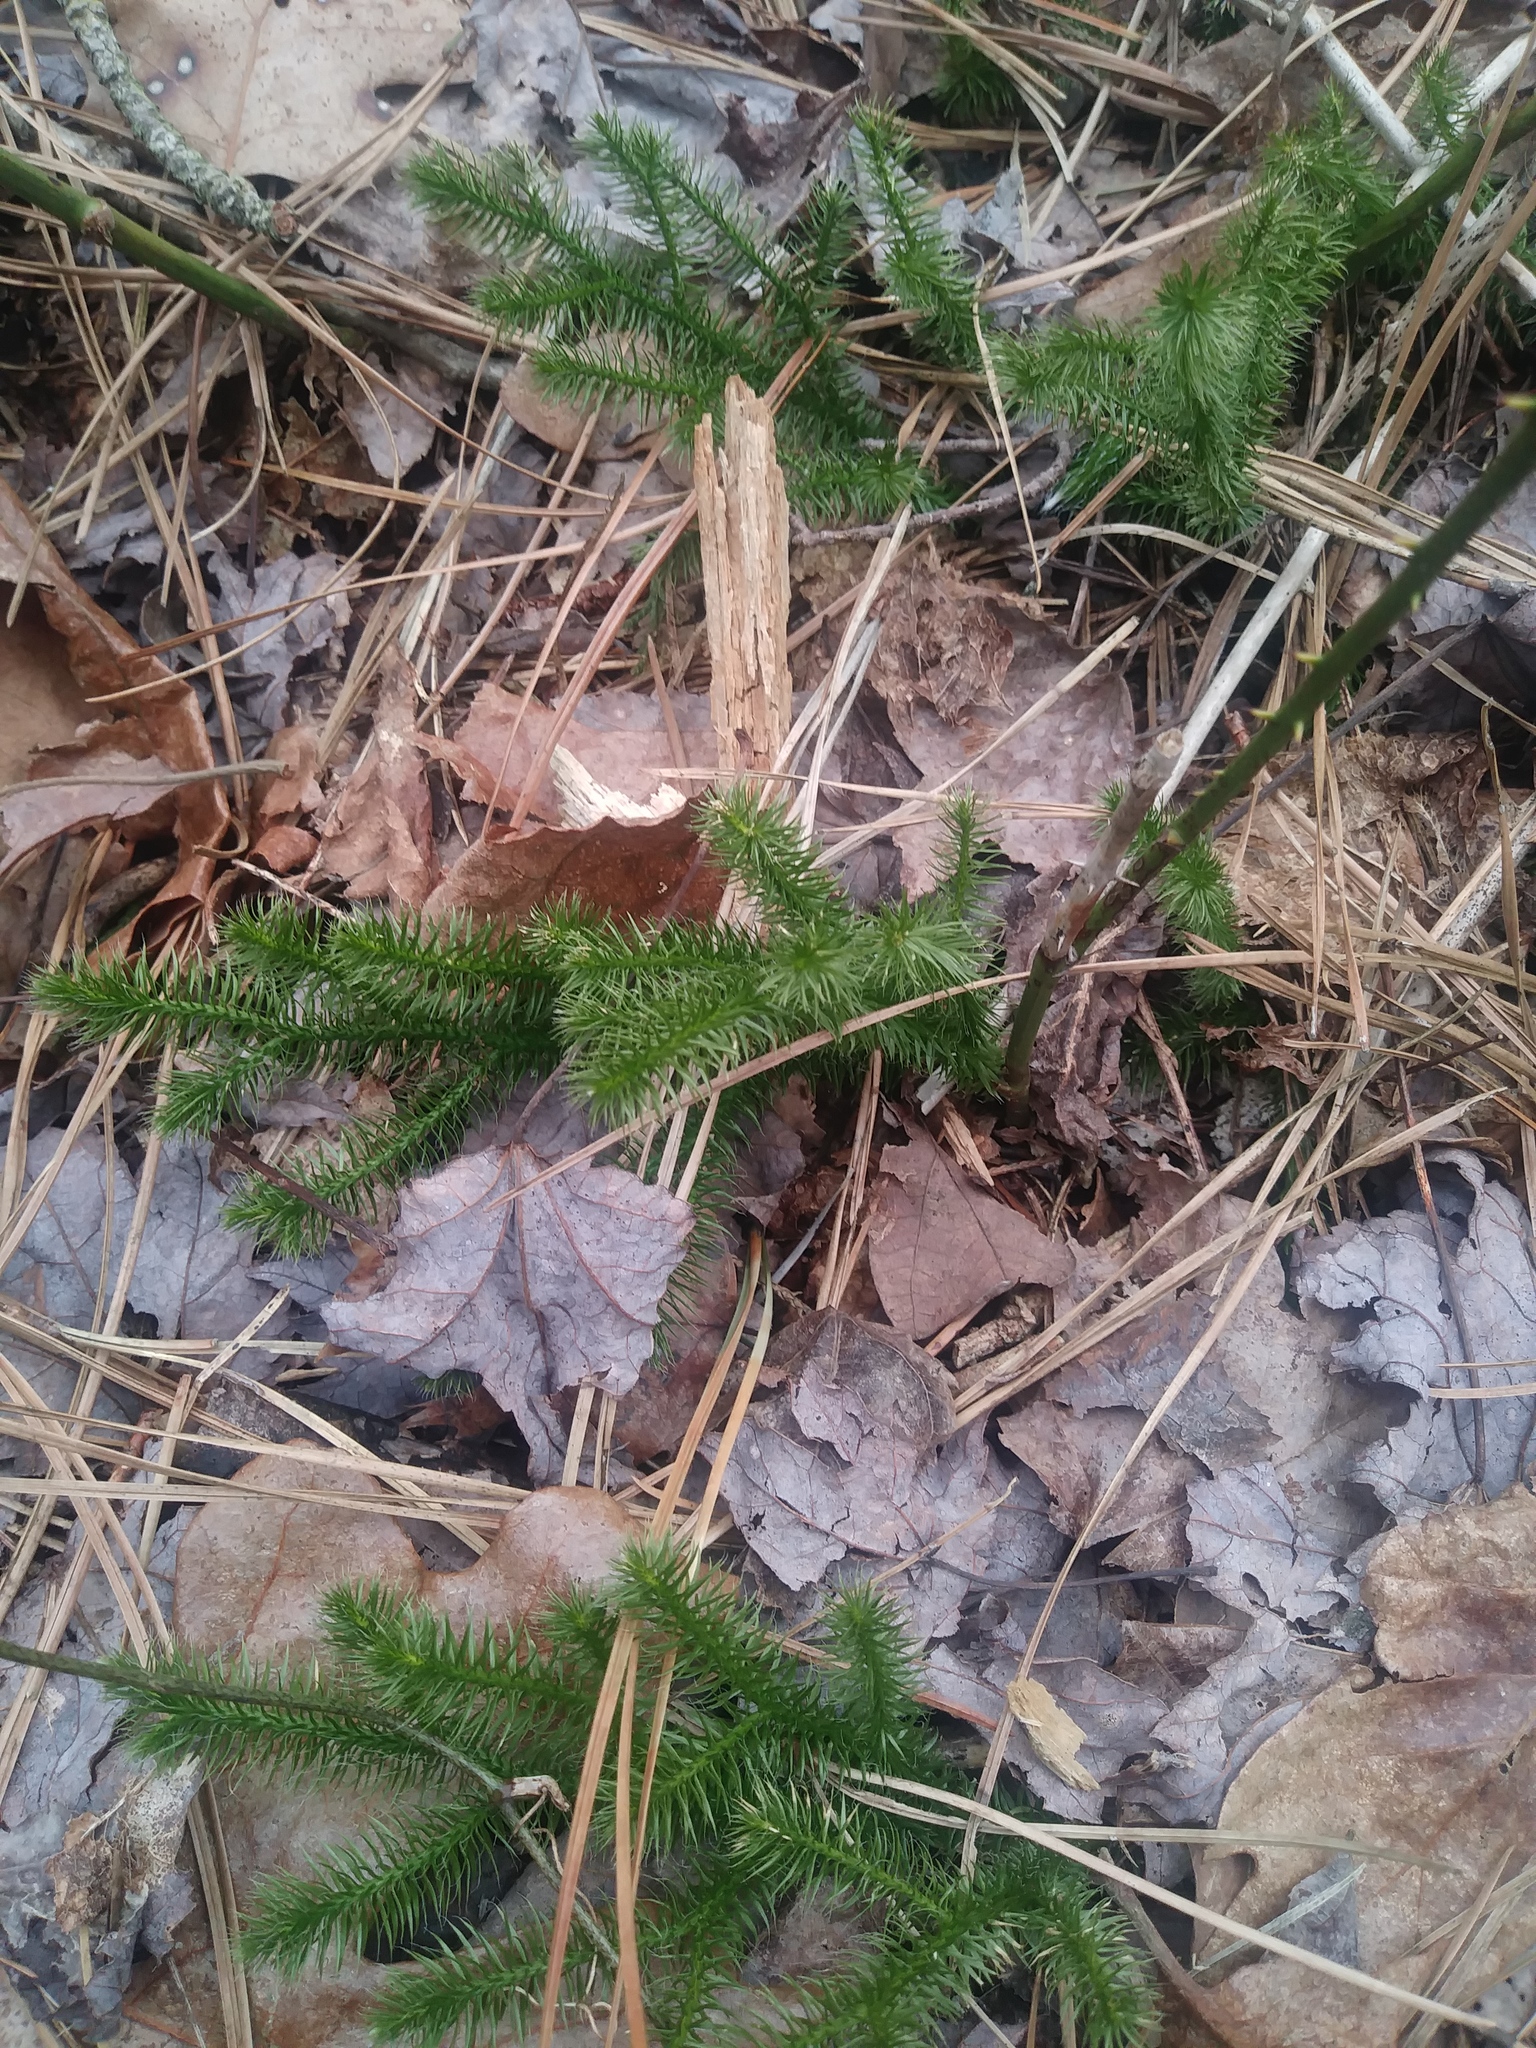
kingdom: Plantae
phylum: Tracheophyta
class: Lycopodiopsida
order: Lycopodiales
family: Lycopodiaceae
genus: Lycopodium
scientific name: Lycopodium clavatum
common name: Stag's-horn clubmoss
